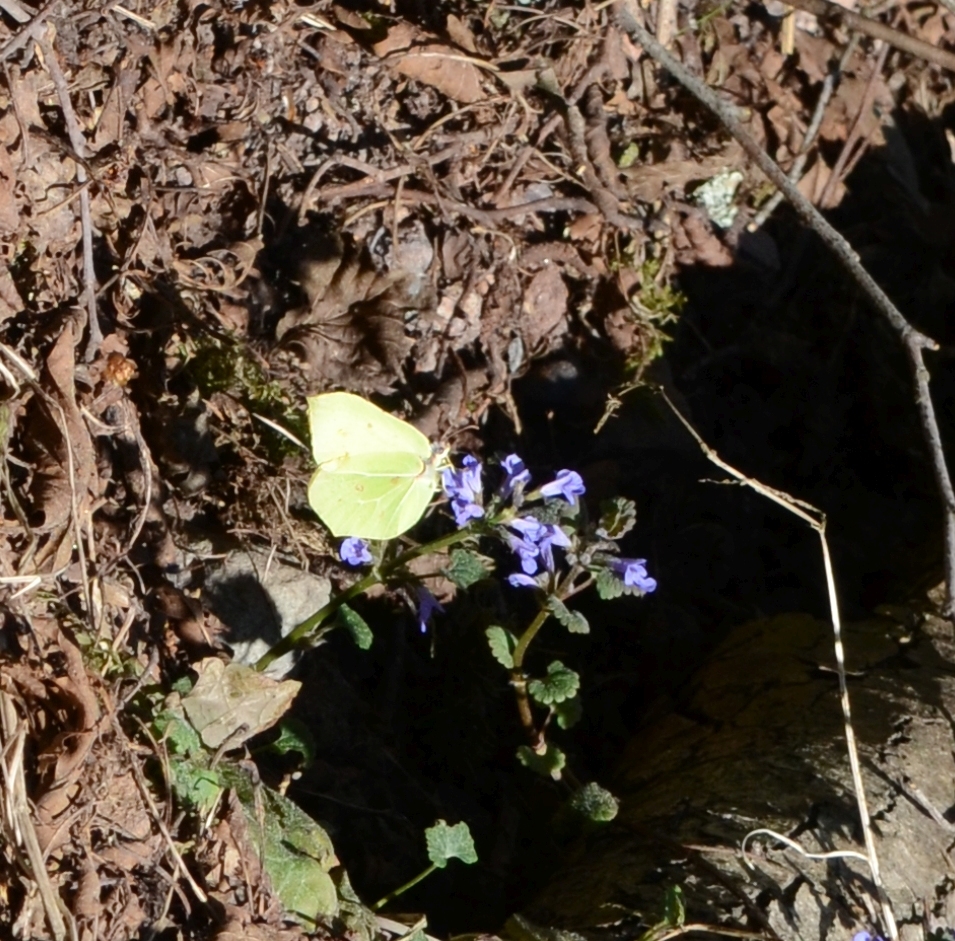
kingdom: Animalia
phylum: Arthropoda
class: Insecta
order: Lepidoptera
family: Pieridae
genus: Gonepteryx
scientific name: Gonepteryx rhamni
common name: Brimstone
